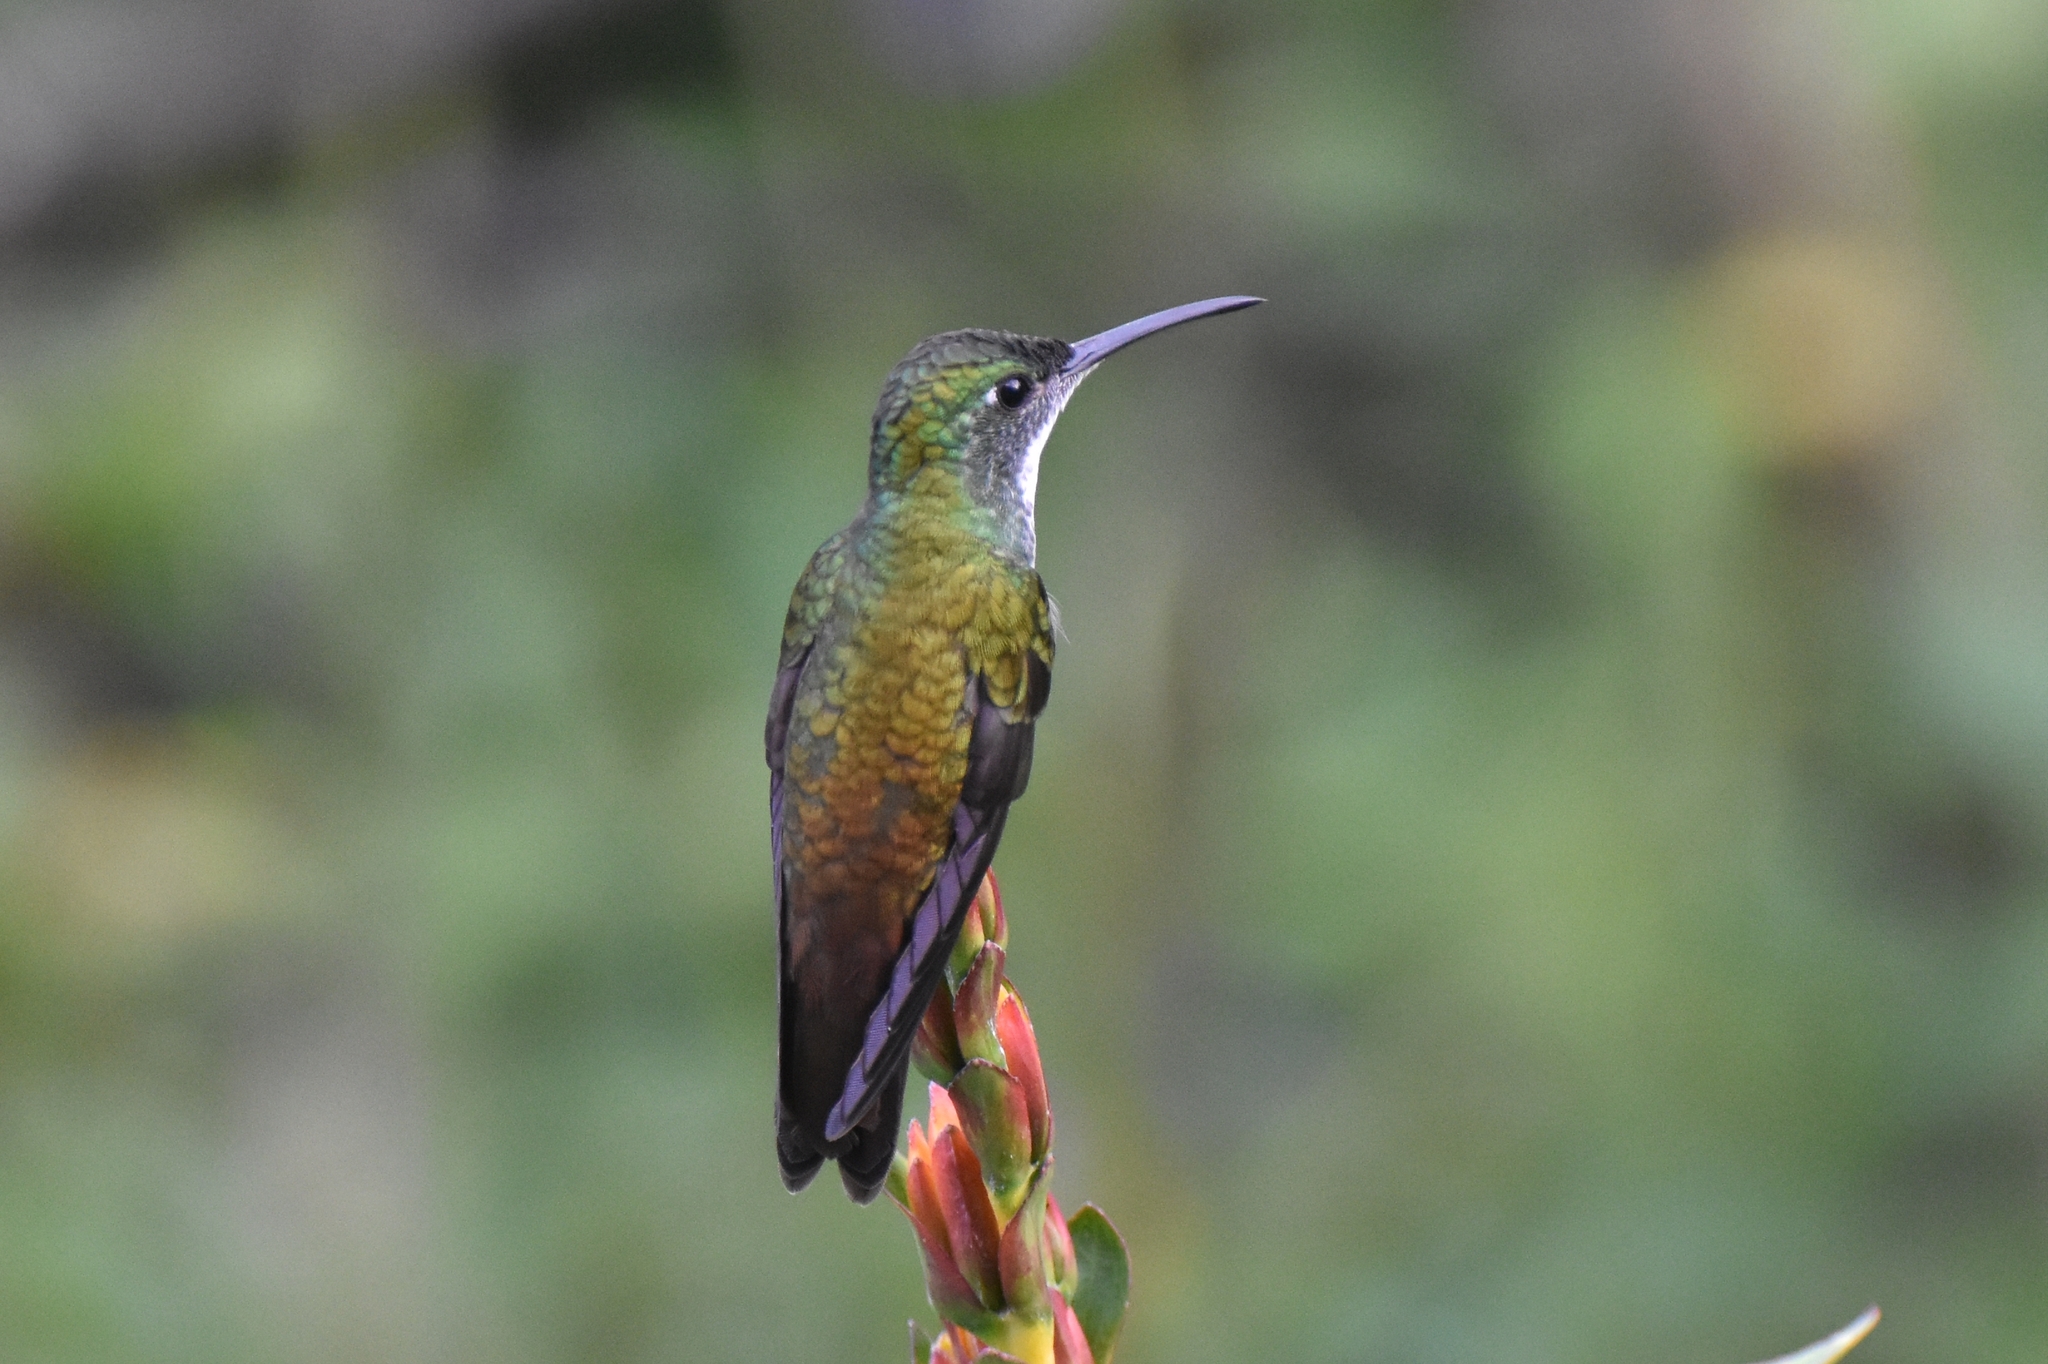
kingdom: Animalia
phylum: Chordata
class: Aves
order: Apodiformes
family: Trochilidae
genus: Chrysuronia
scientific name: Chrysuronia brevirostris
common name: White-chested emerald
